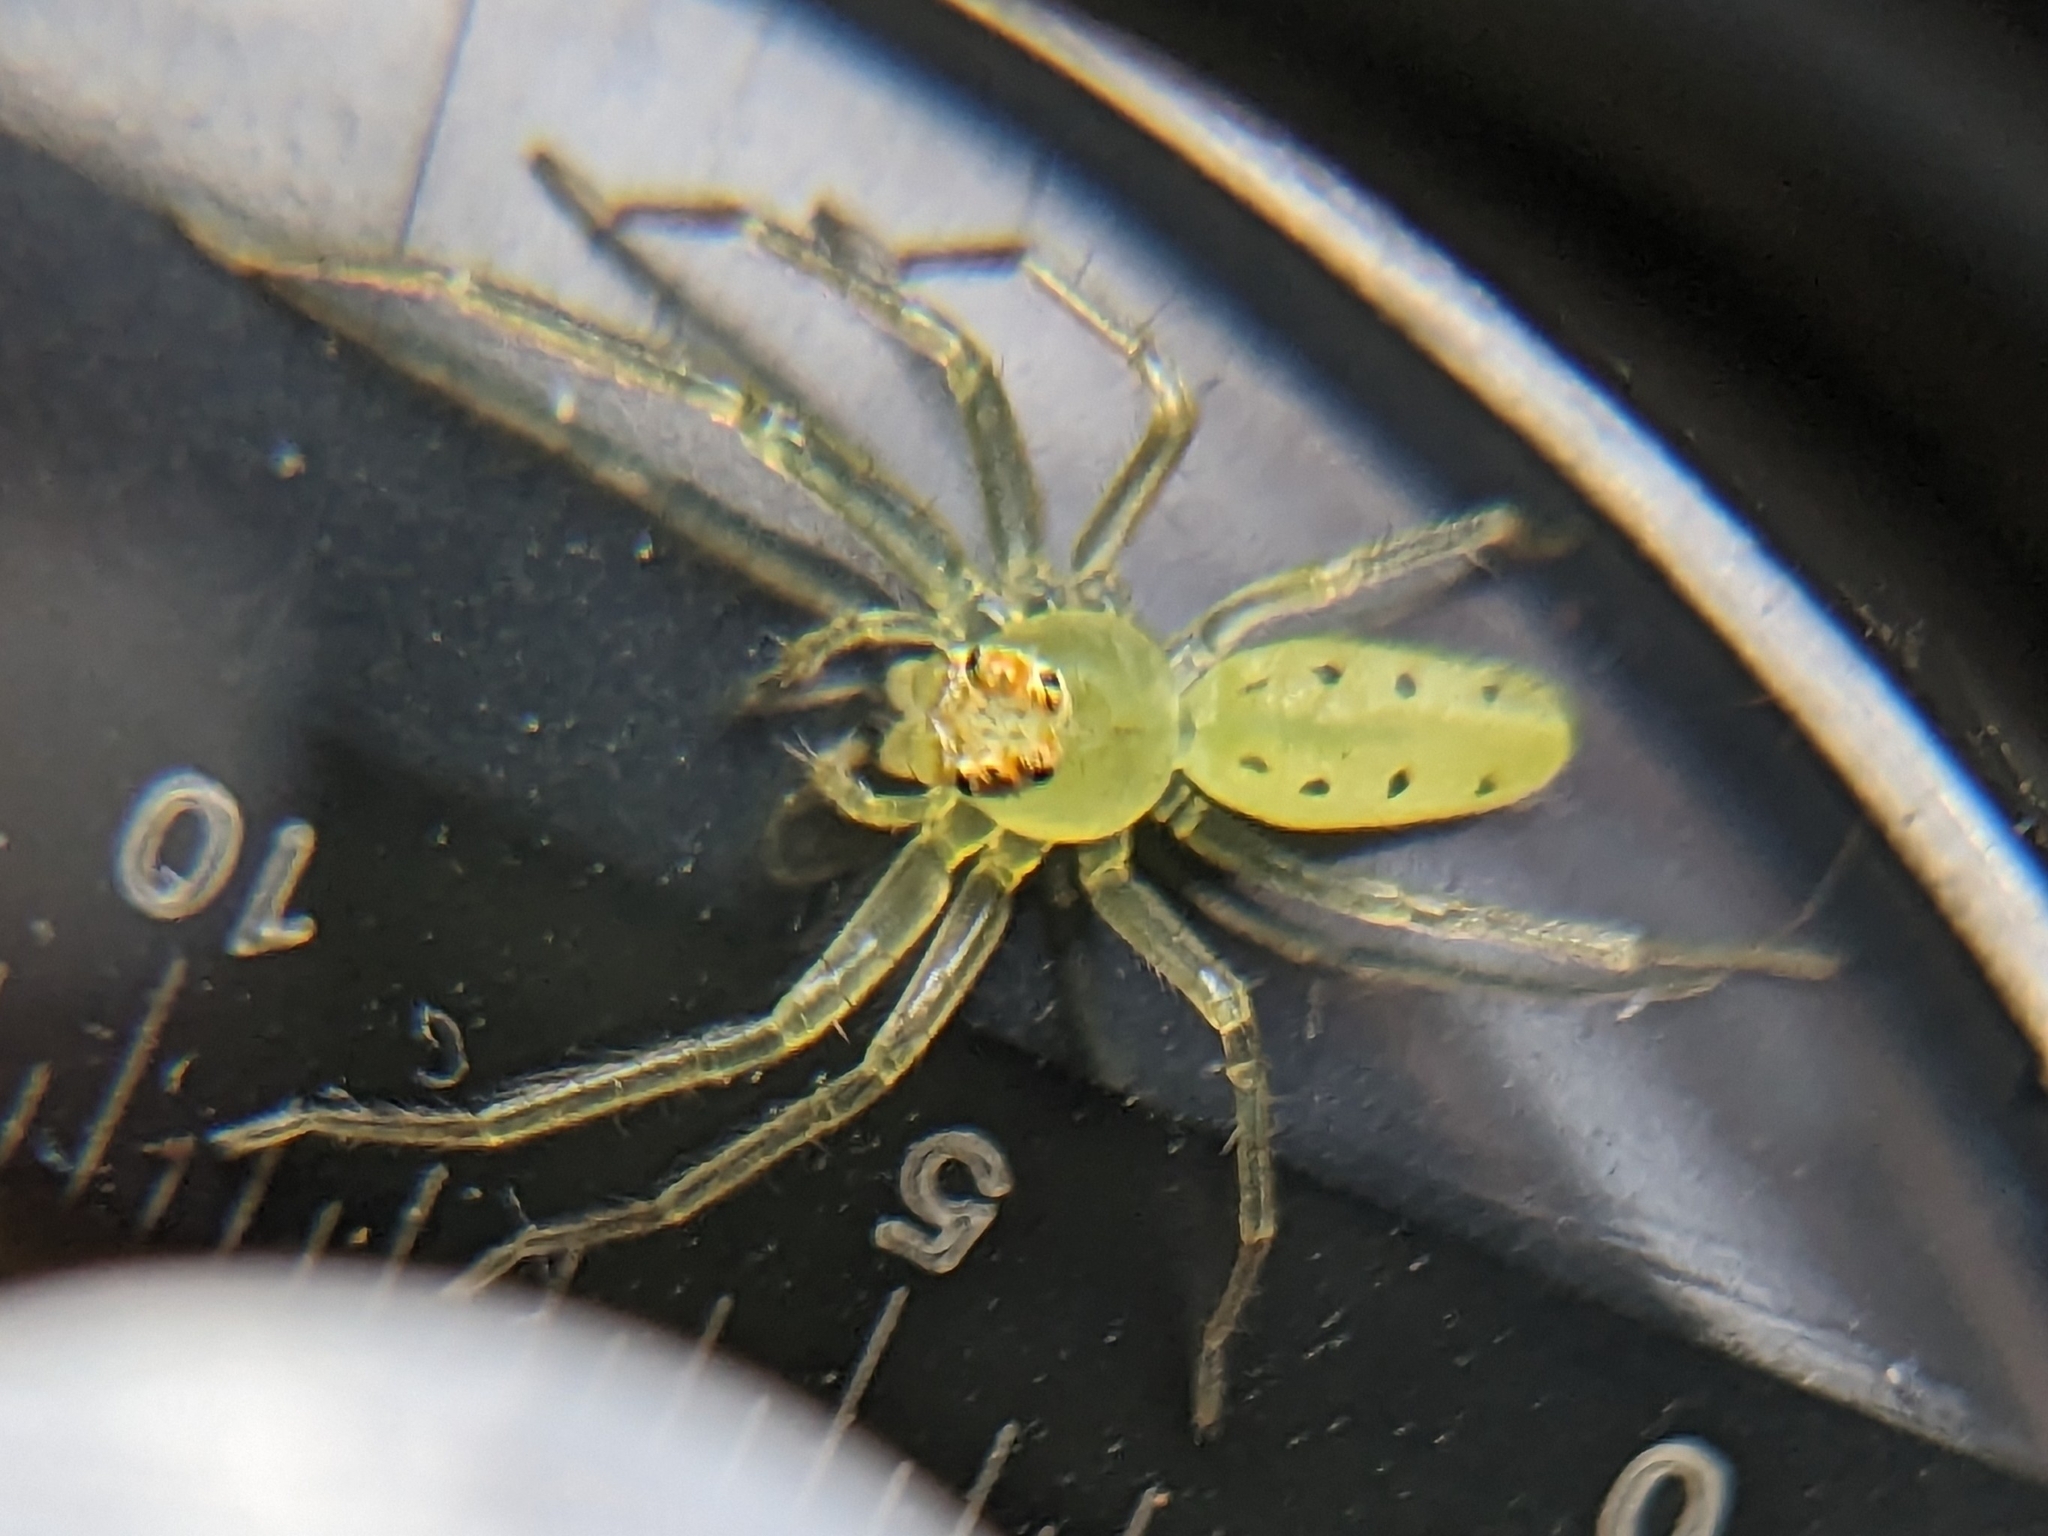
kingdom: Animalia
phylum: Arthropoda
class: Arachnida
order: Araneae
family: Salticidae
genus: Lyssomanes
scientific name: Lyssomanes viridis
